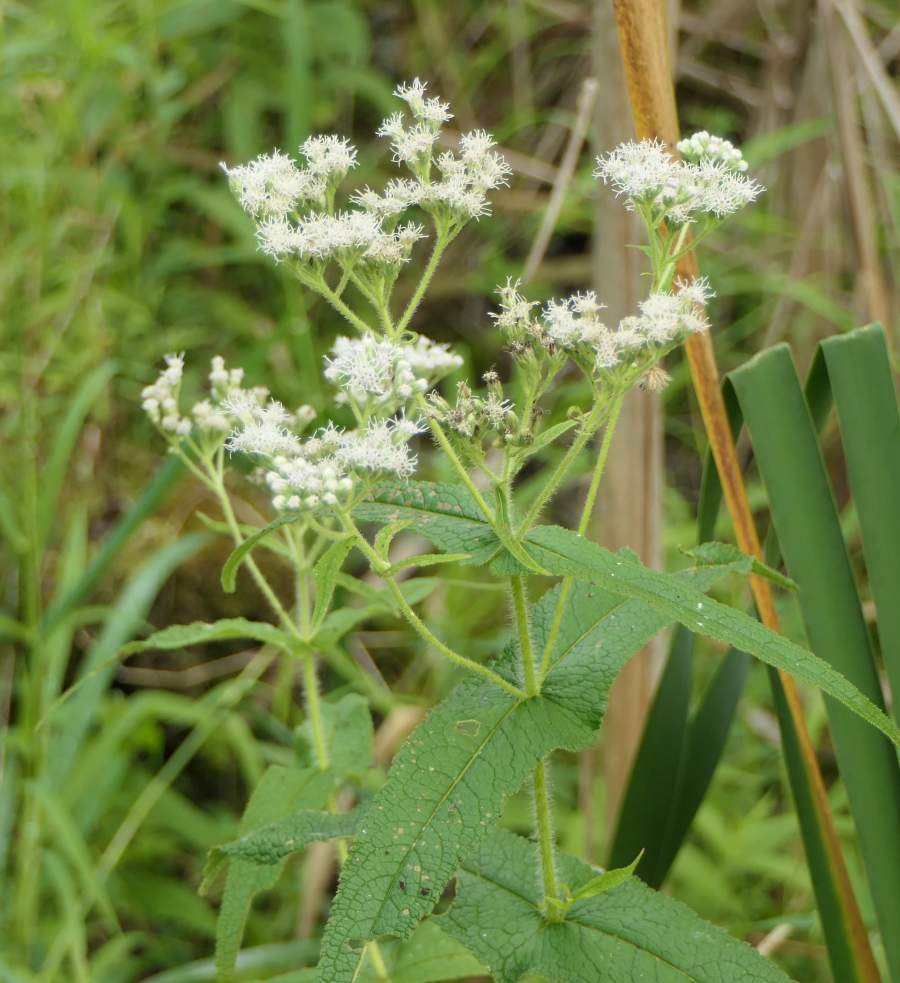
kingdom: Plantae
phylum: Tracheophyta
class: Magnoliopsida
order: Asterales
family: Asteraceae
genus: Eupatorium
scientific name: Eupatorium perfoliatum
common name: Boneset
